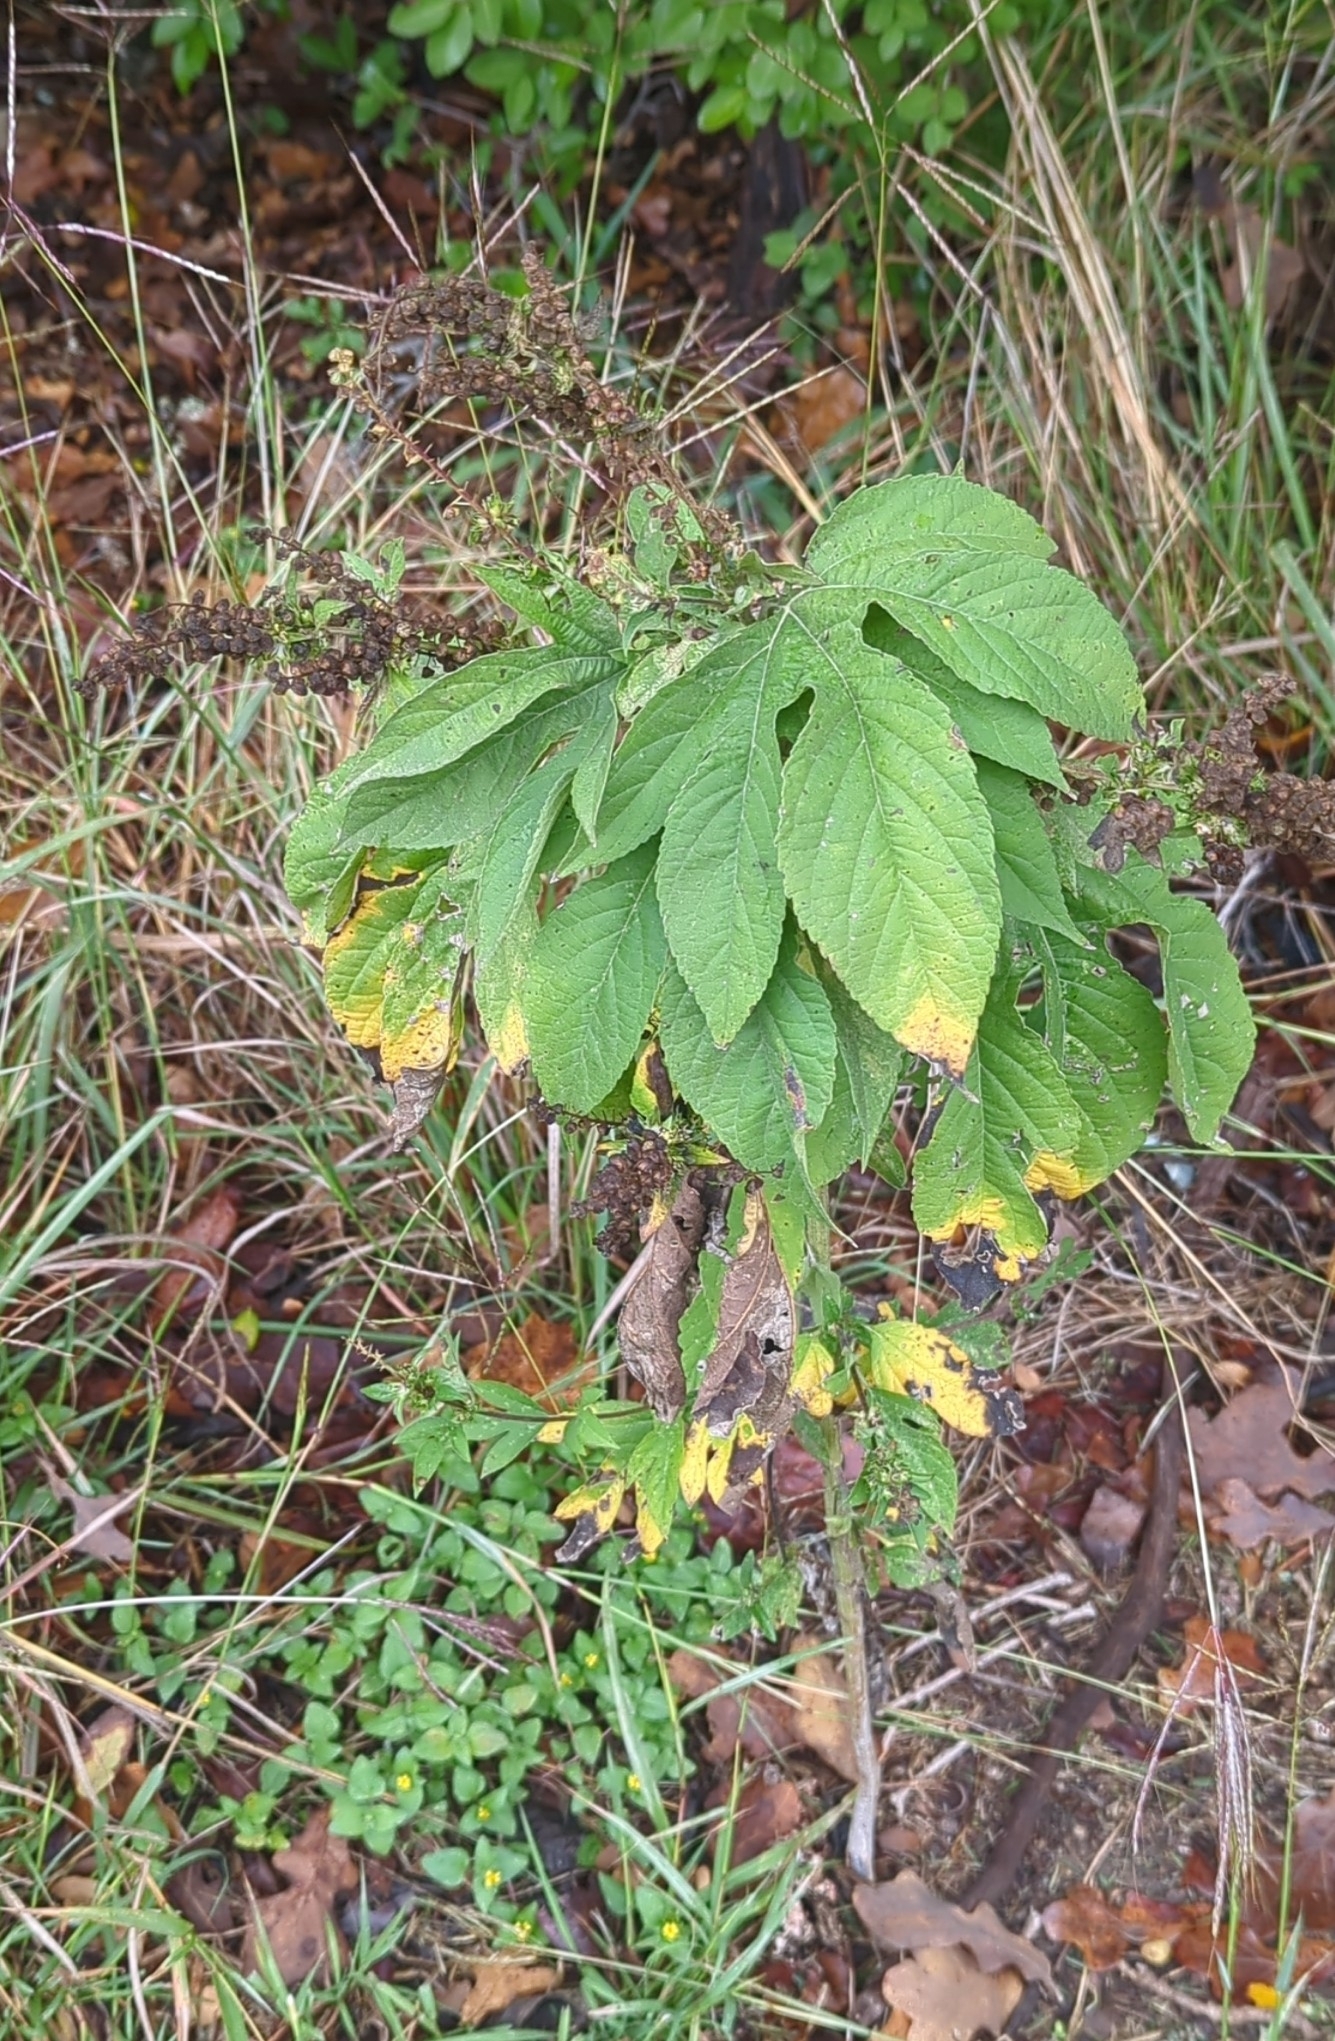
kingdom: Plantae
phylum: Tracheophyta
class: Magnoliopsida
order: Asterales
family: Asteraceae
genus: Ambrosia
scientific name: Ambrosia trifida
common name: Giant ragweed
